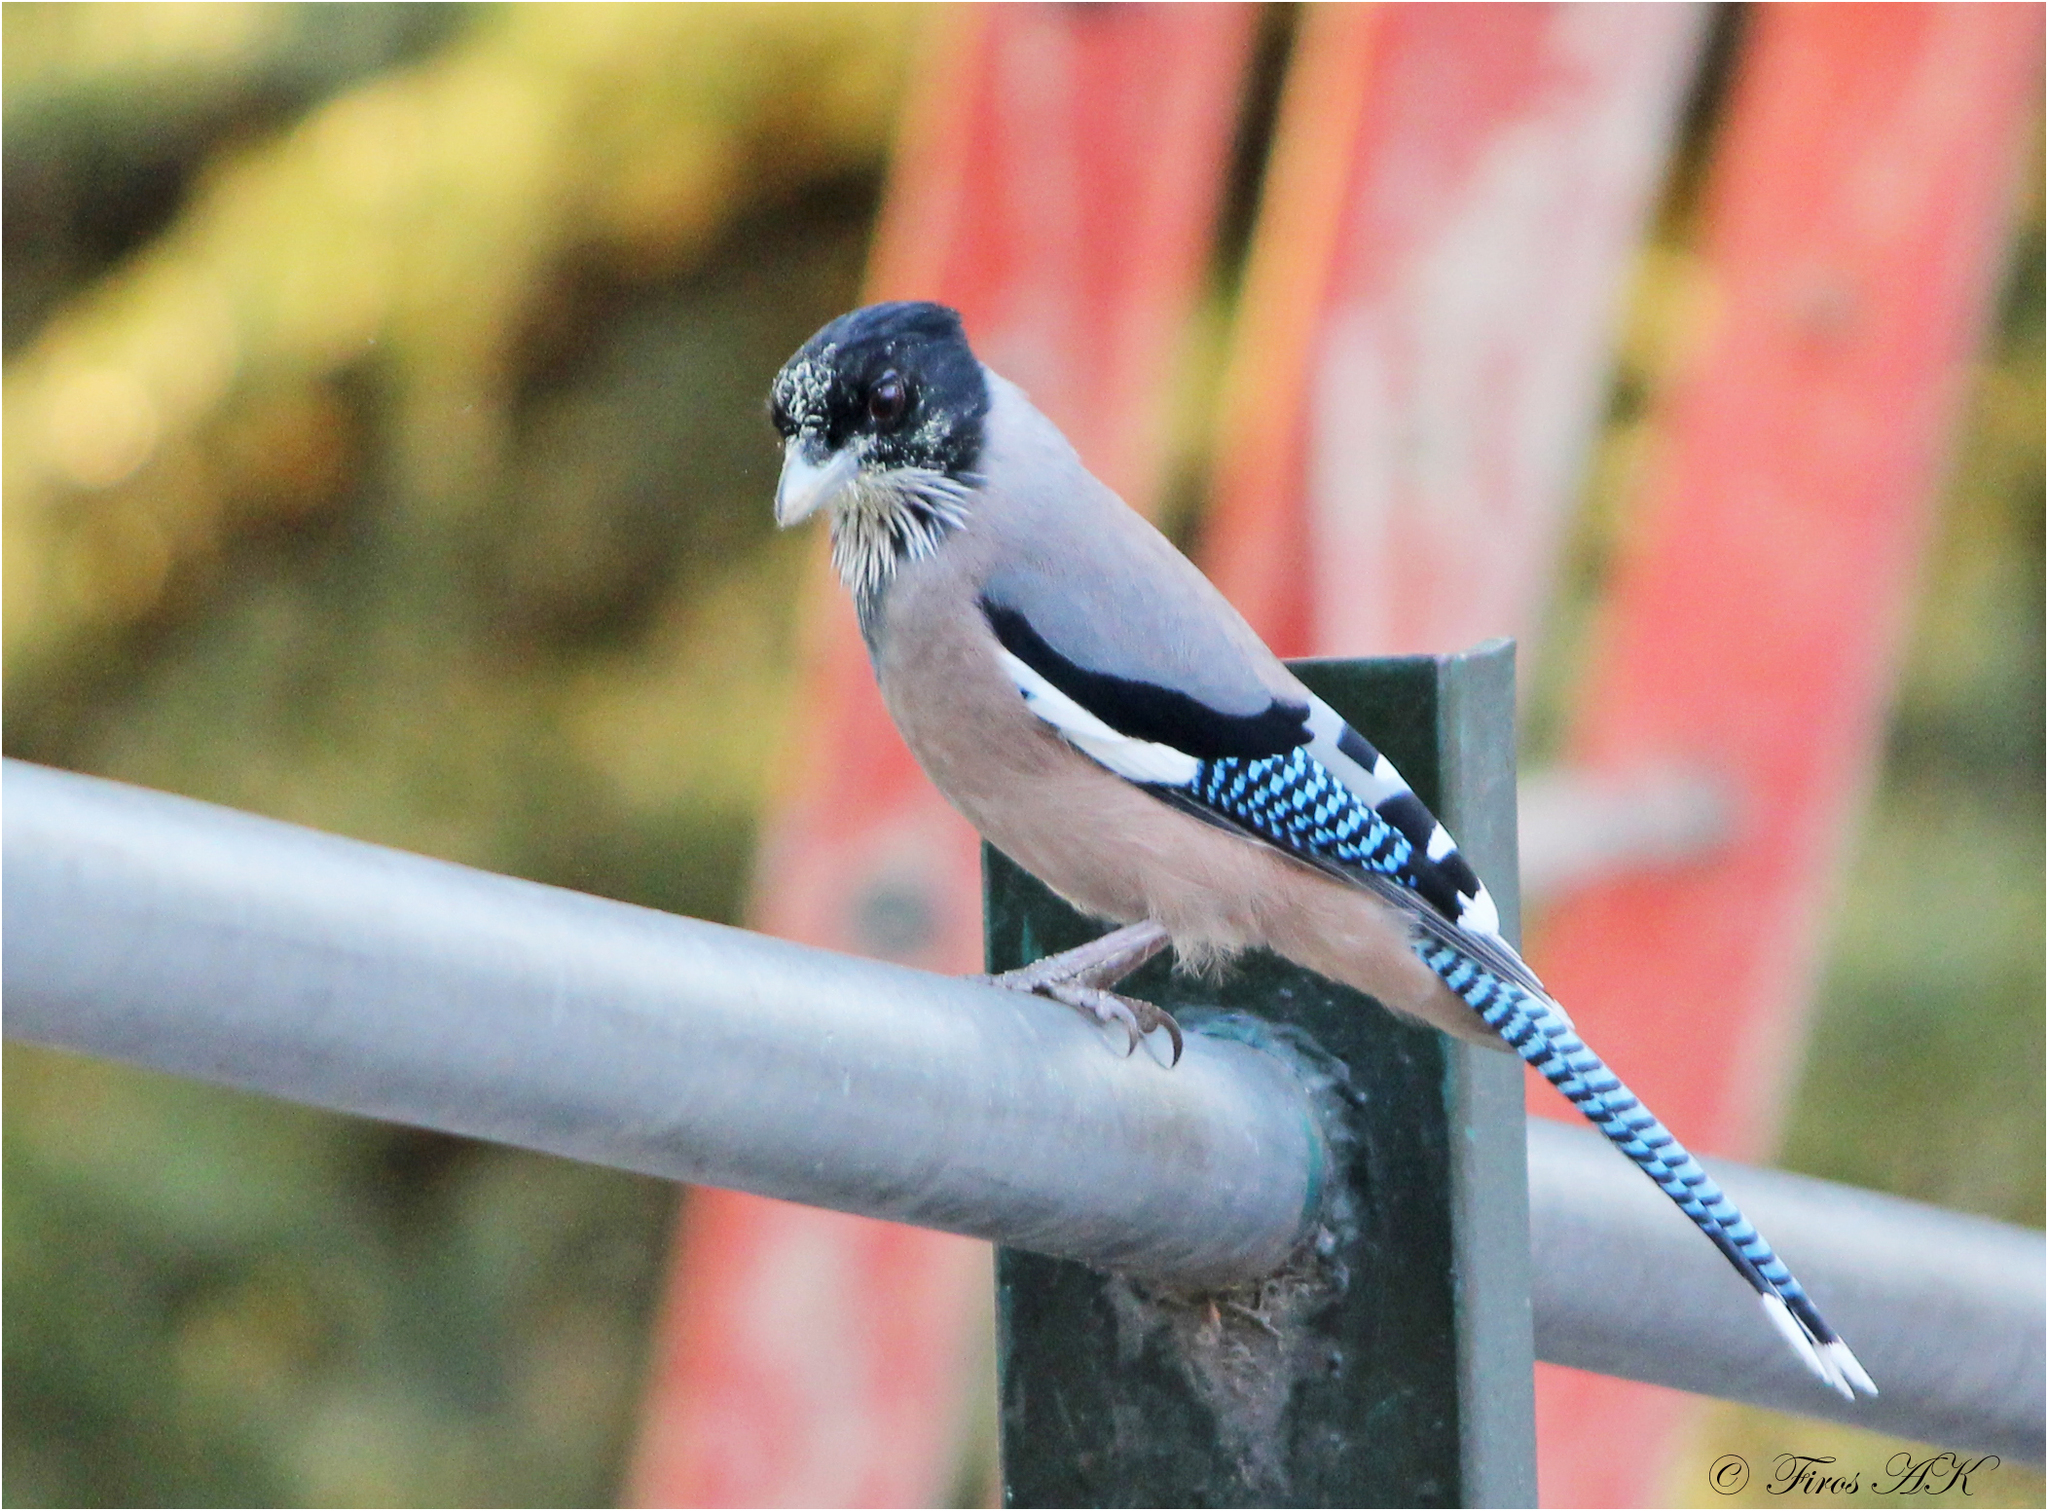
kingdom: Animalia
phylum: Chordata
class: Aves
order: Passeriformes
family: Corvidae
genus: Garrulus
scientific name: Garrulus lanceolatus
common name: Black-headed jay
